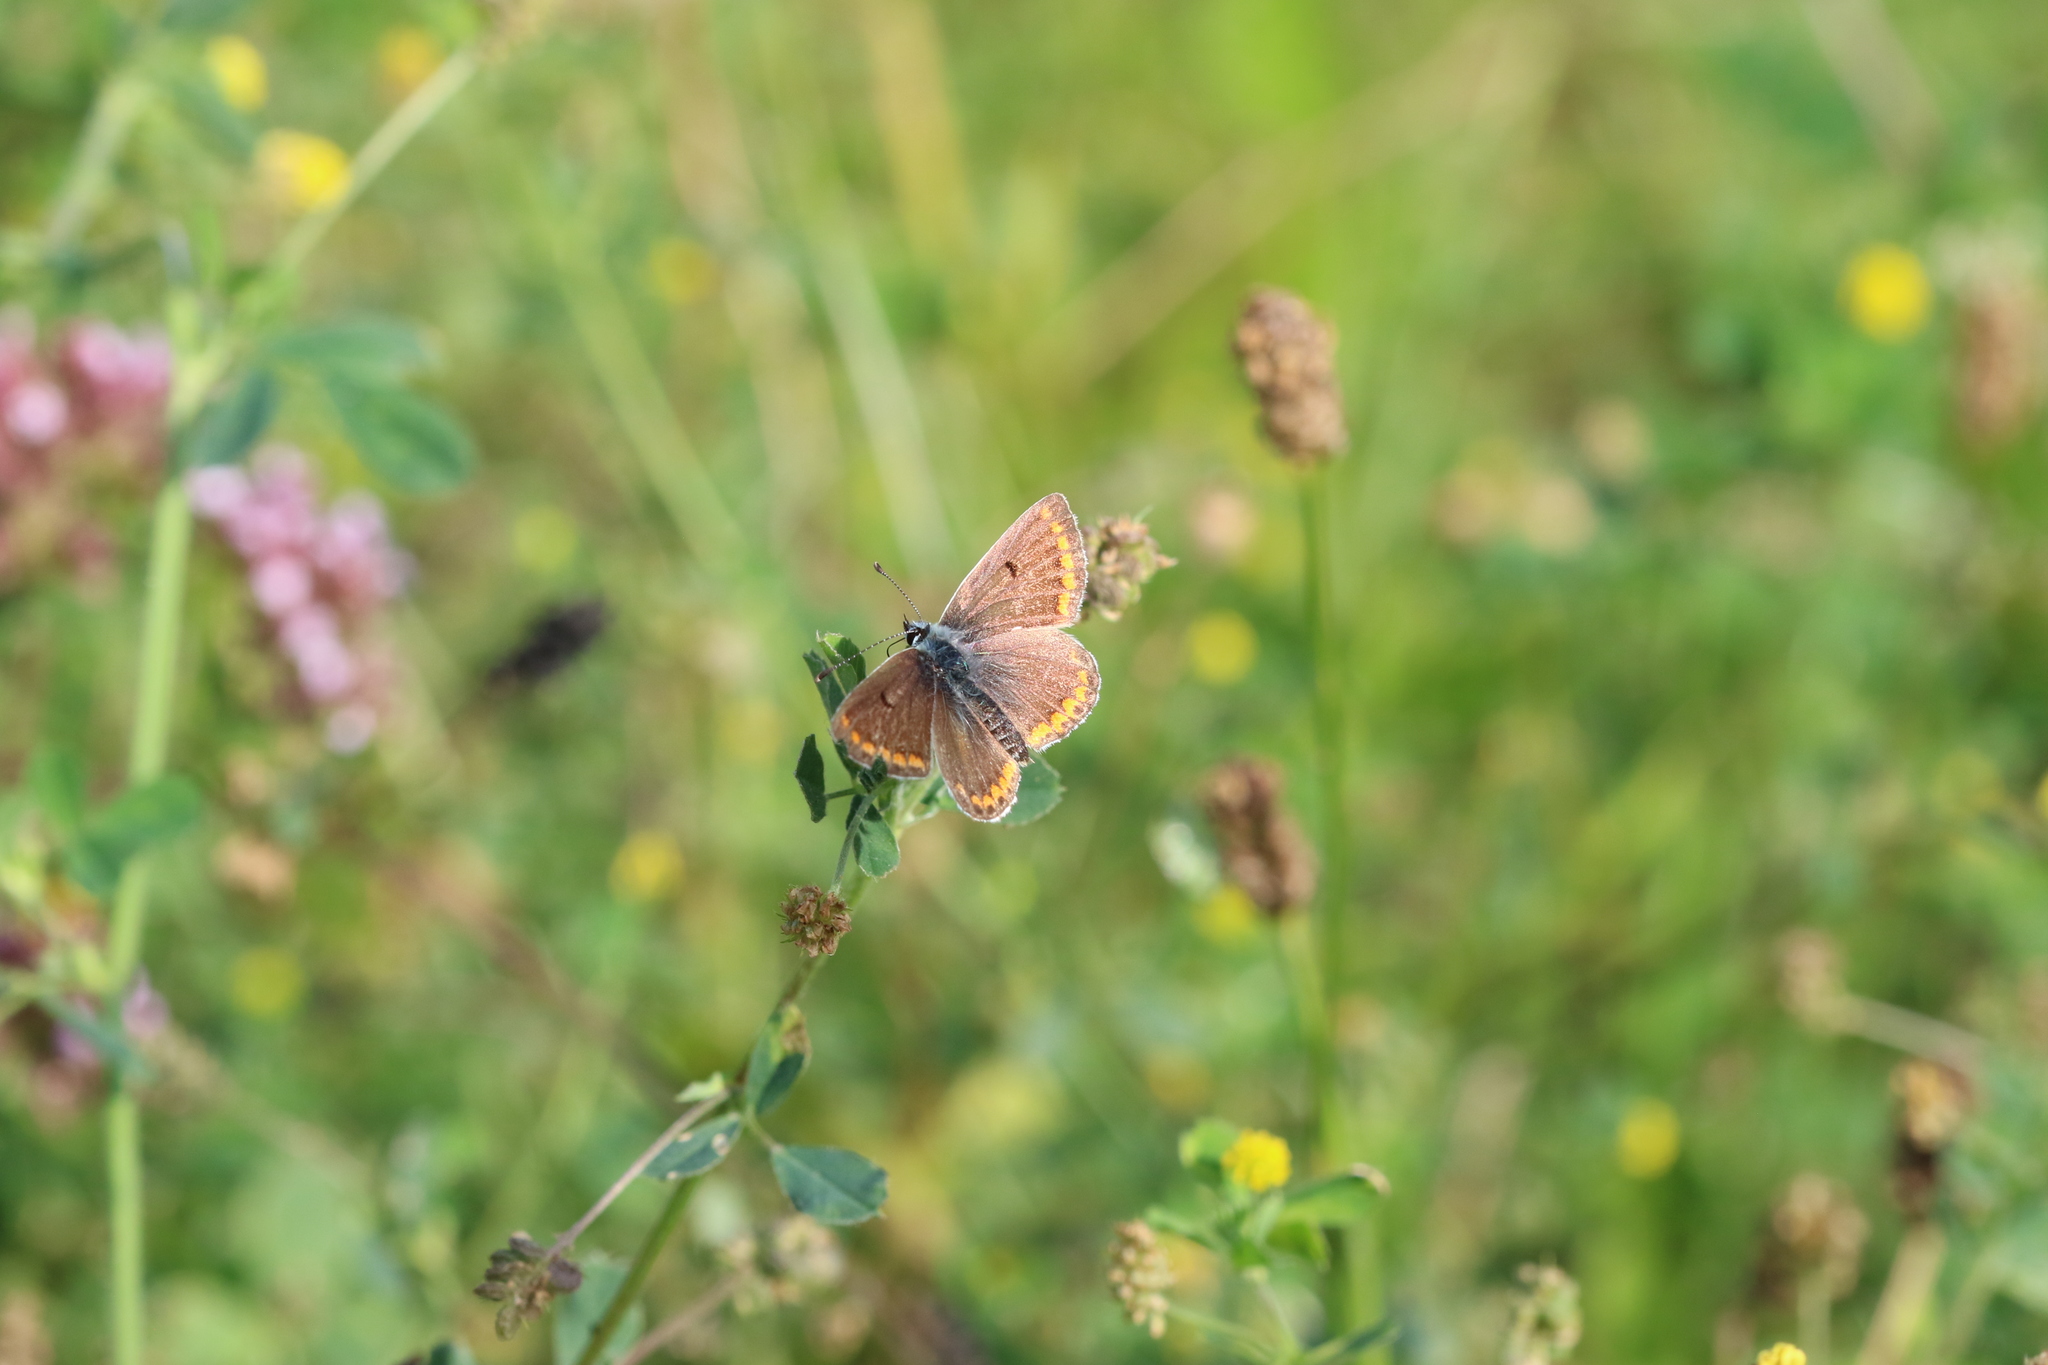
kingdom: Animalia
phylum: Arthropoda
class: Insecta
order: Lepidoptera
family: Lycaenidae
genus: Aricia
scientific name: Aricia agestis
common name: Brown argus
